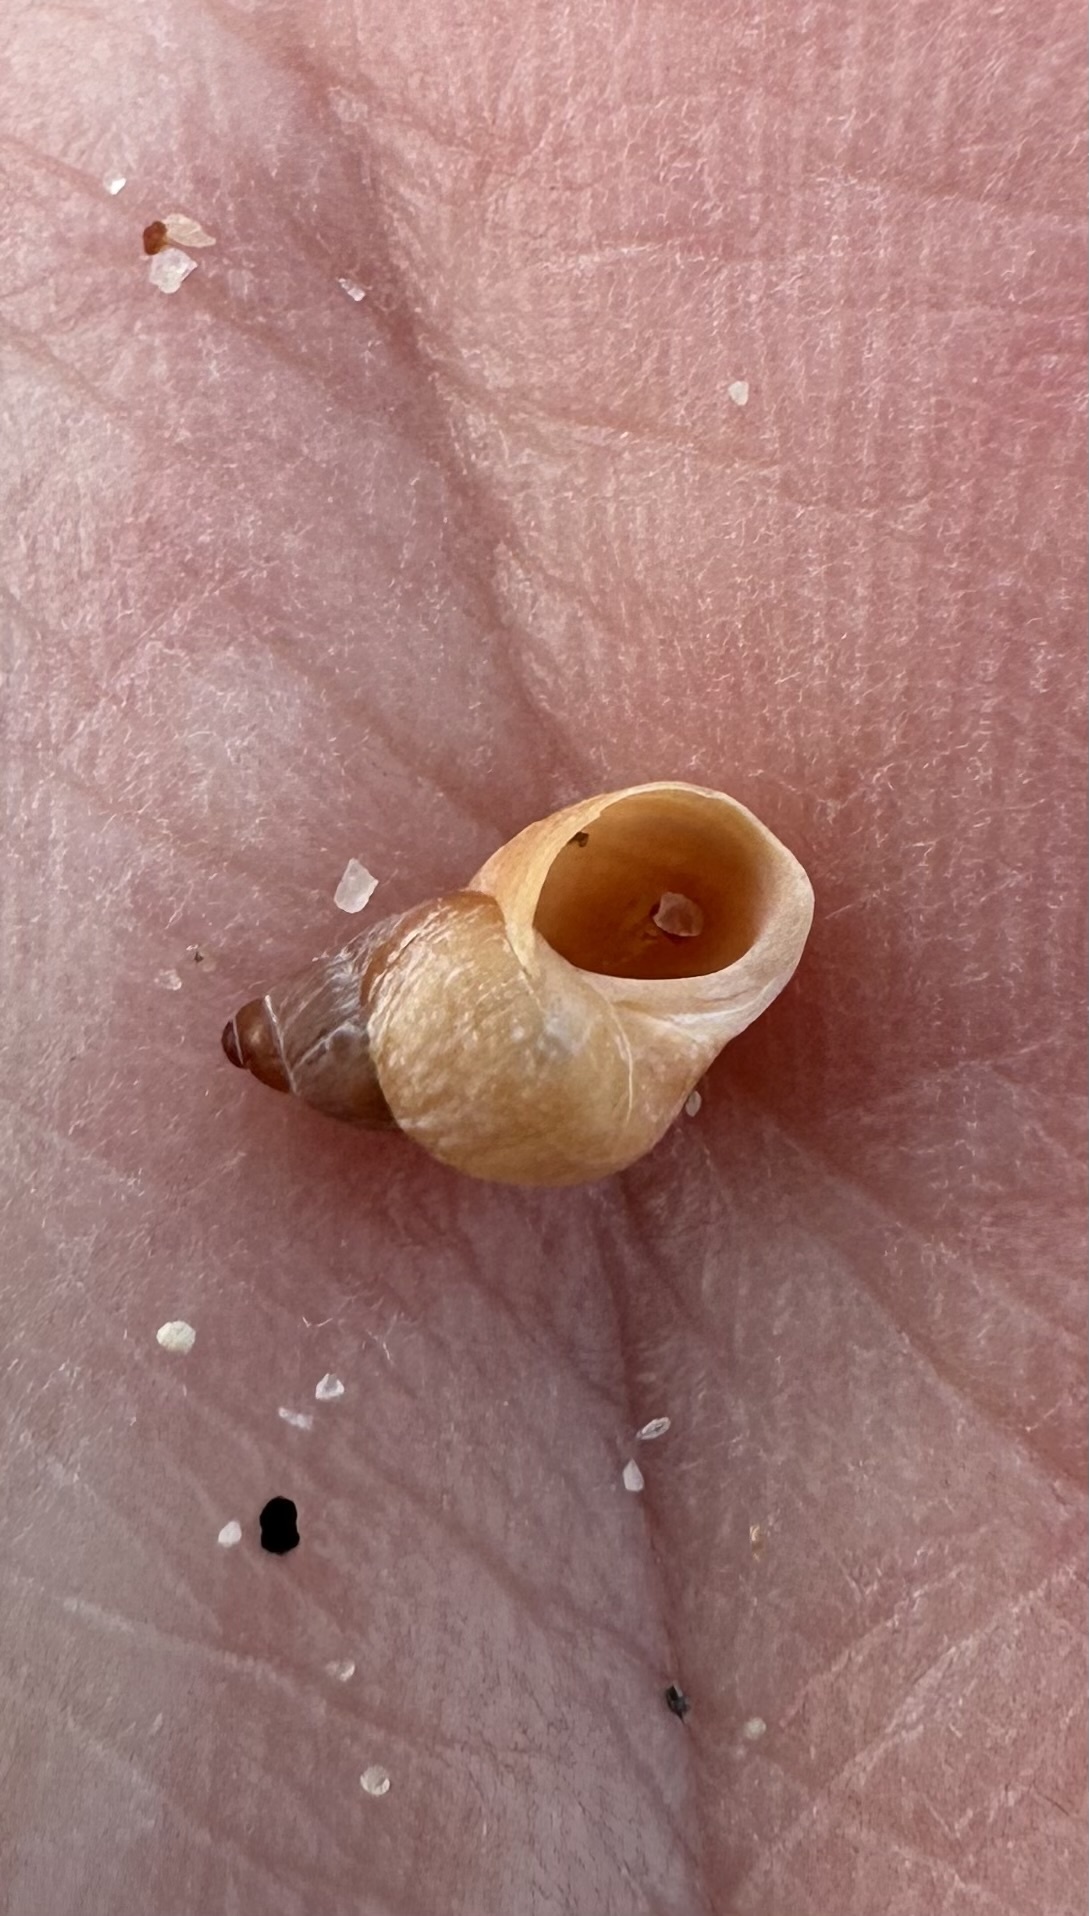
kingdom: Animalia
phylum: Mollusca
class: Gastropoda
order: Littorinimorpha
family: Littorinidae
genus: Lacuna
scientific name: Lacuna vincta
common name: Banded chink shell
